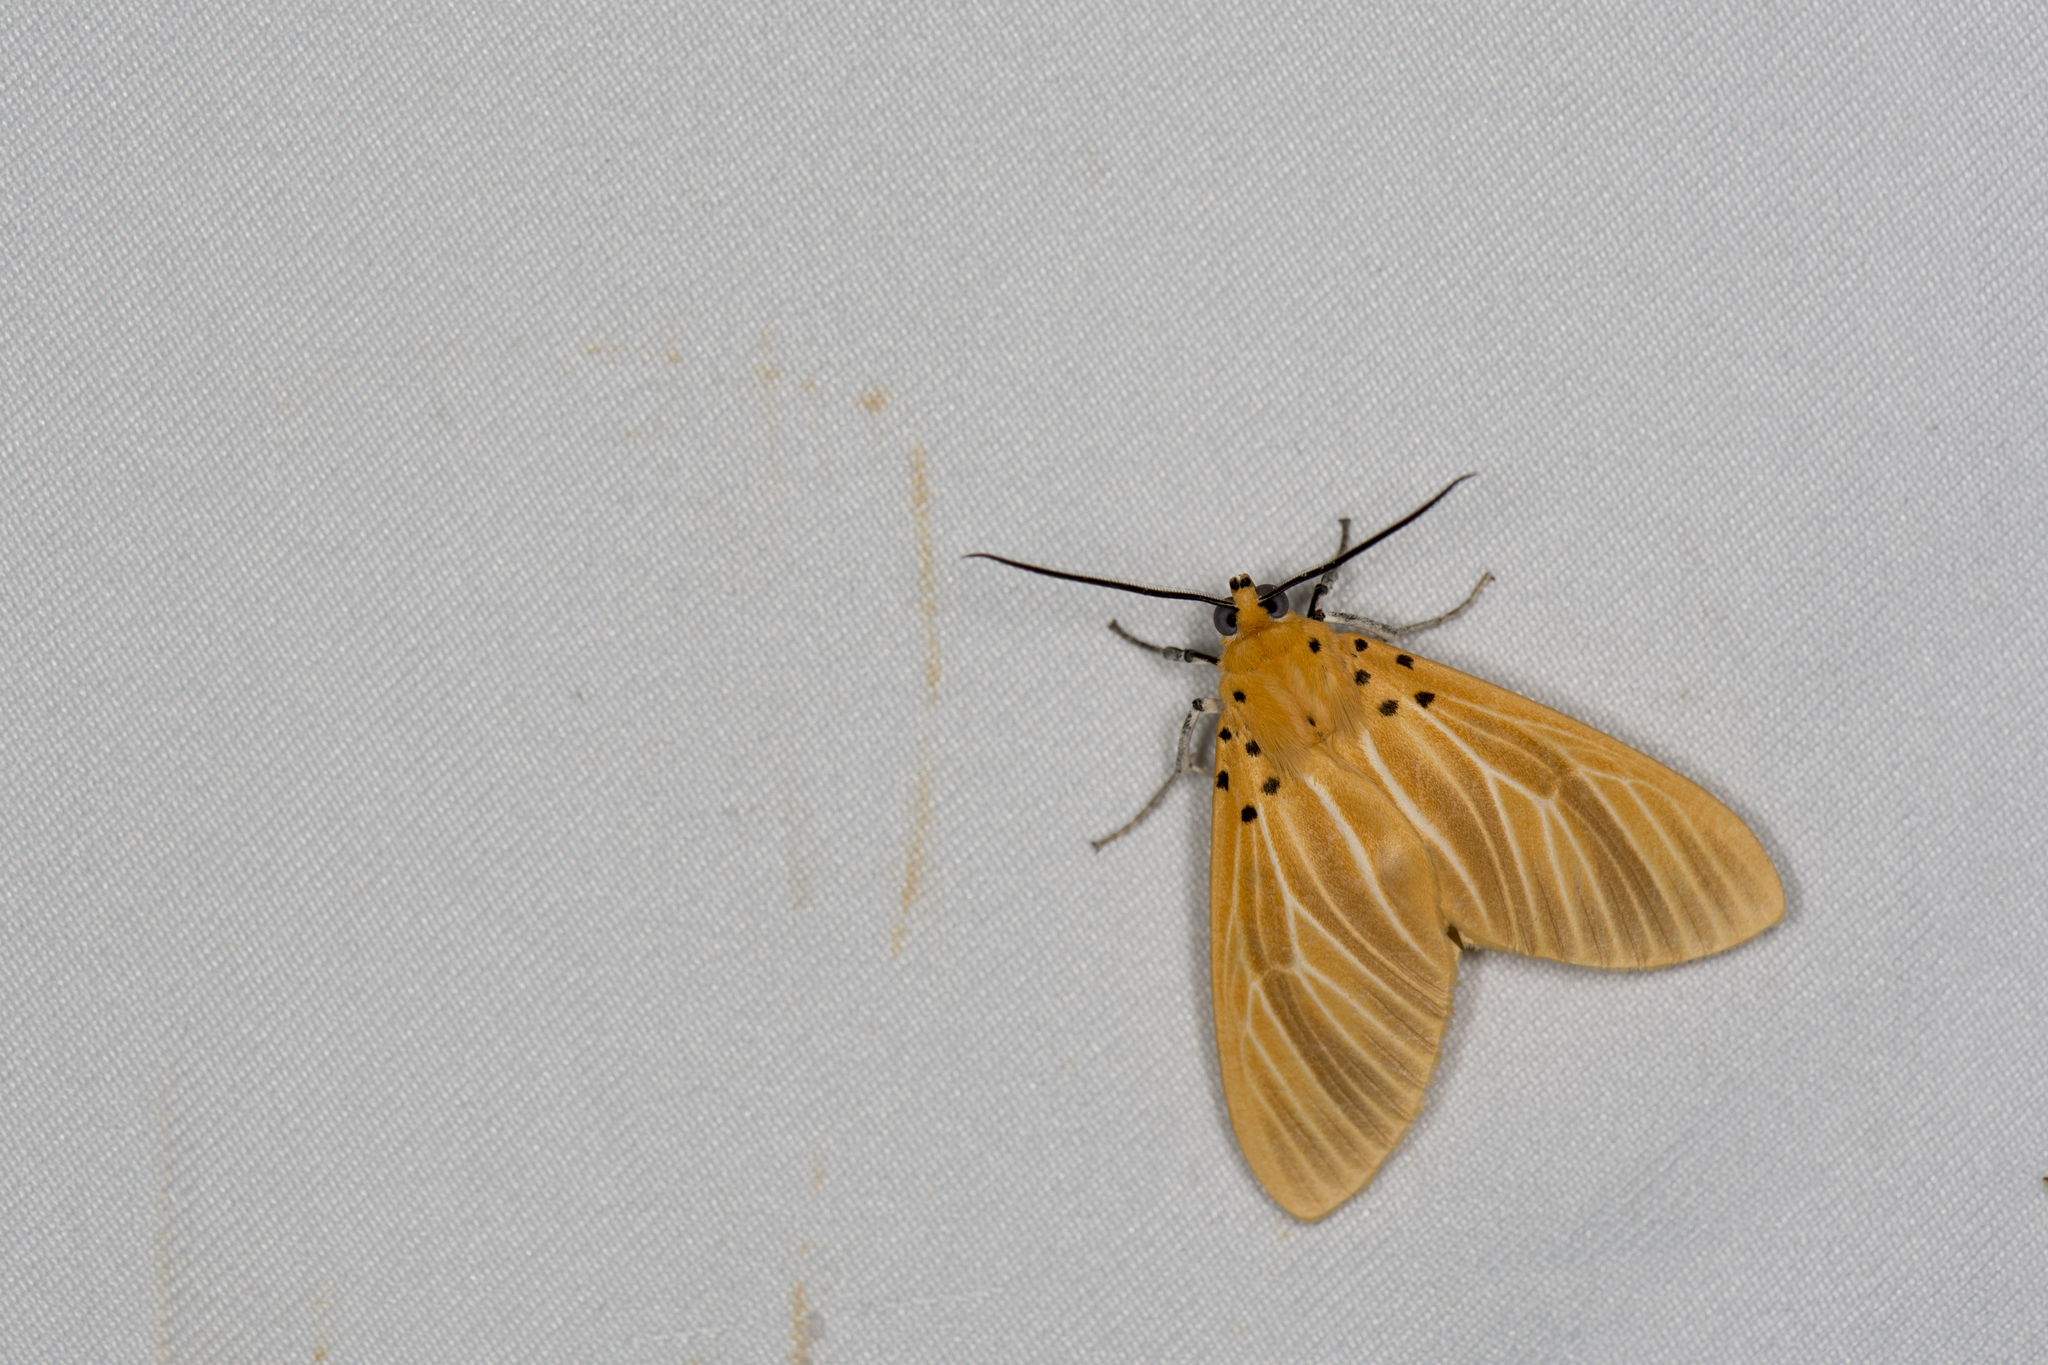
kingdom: Animalia
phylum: Arthropoda
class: Insecta
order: Lepidoptera
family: Erebidae
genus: Asota
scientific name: Asota egens
